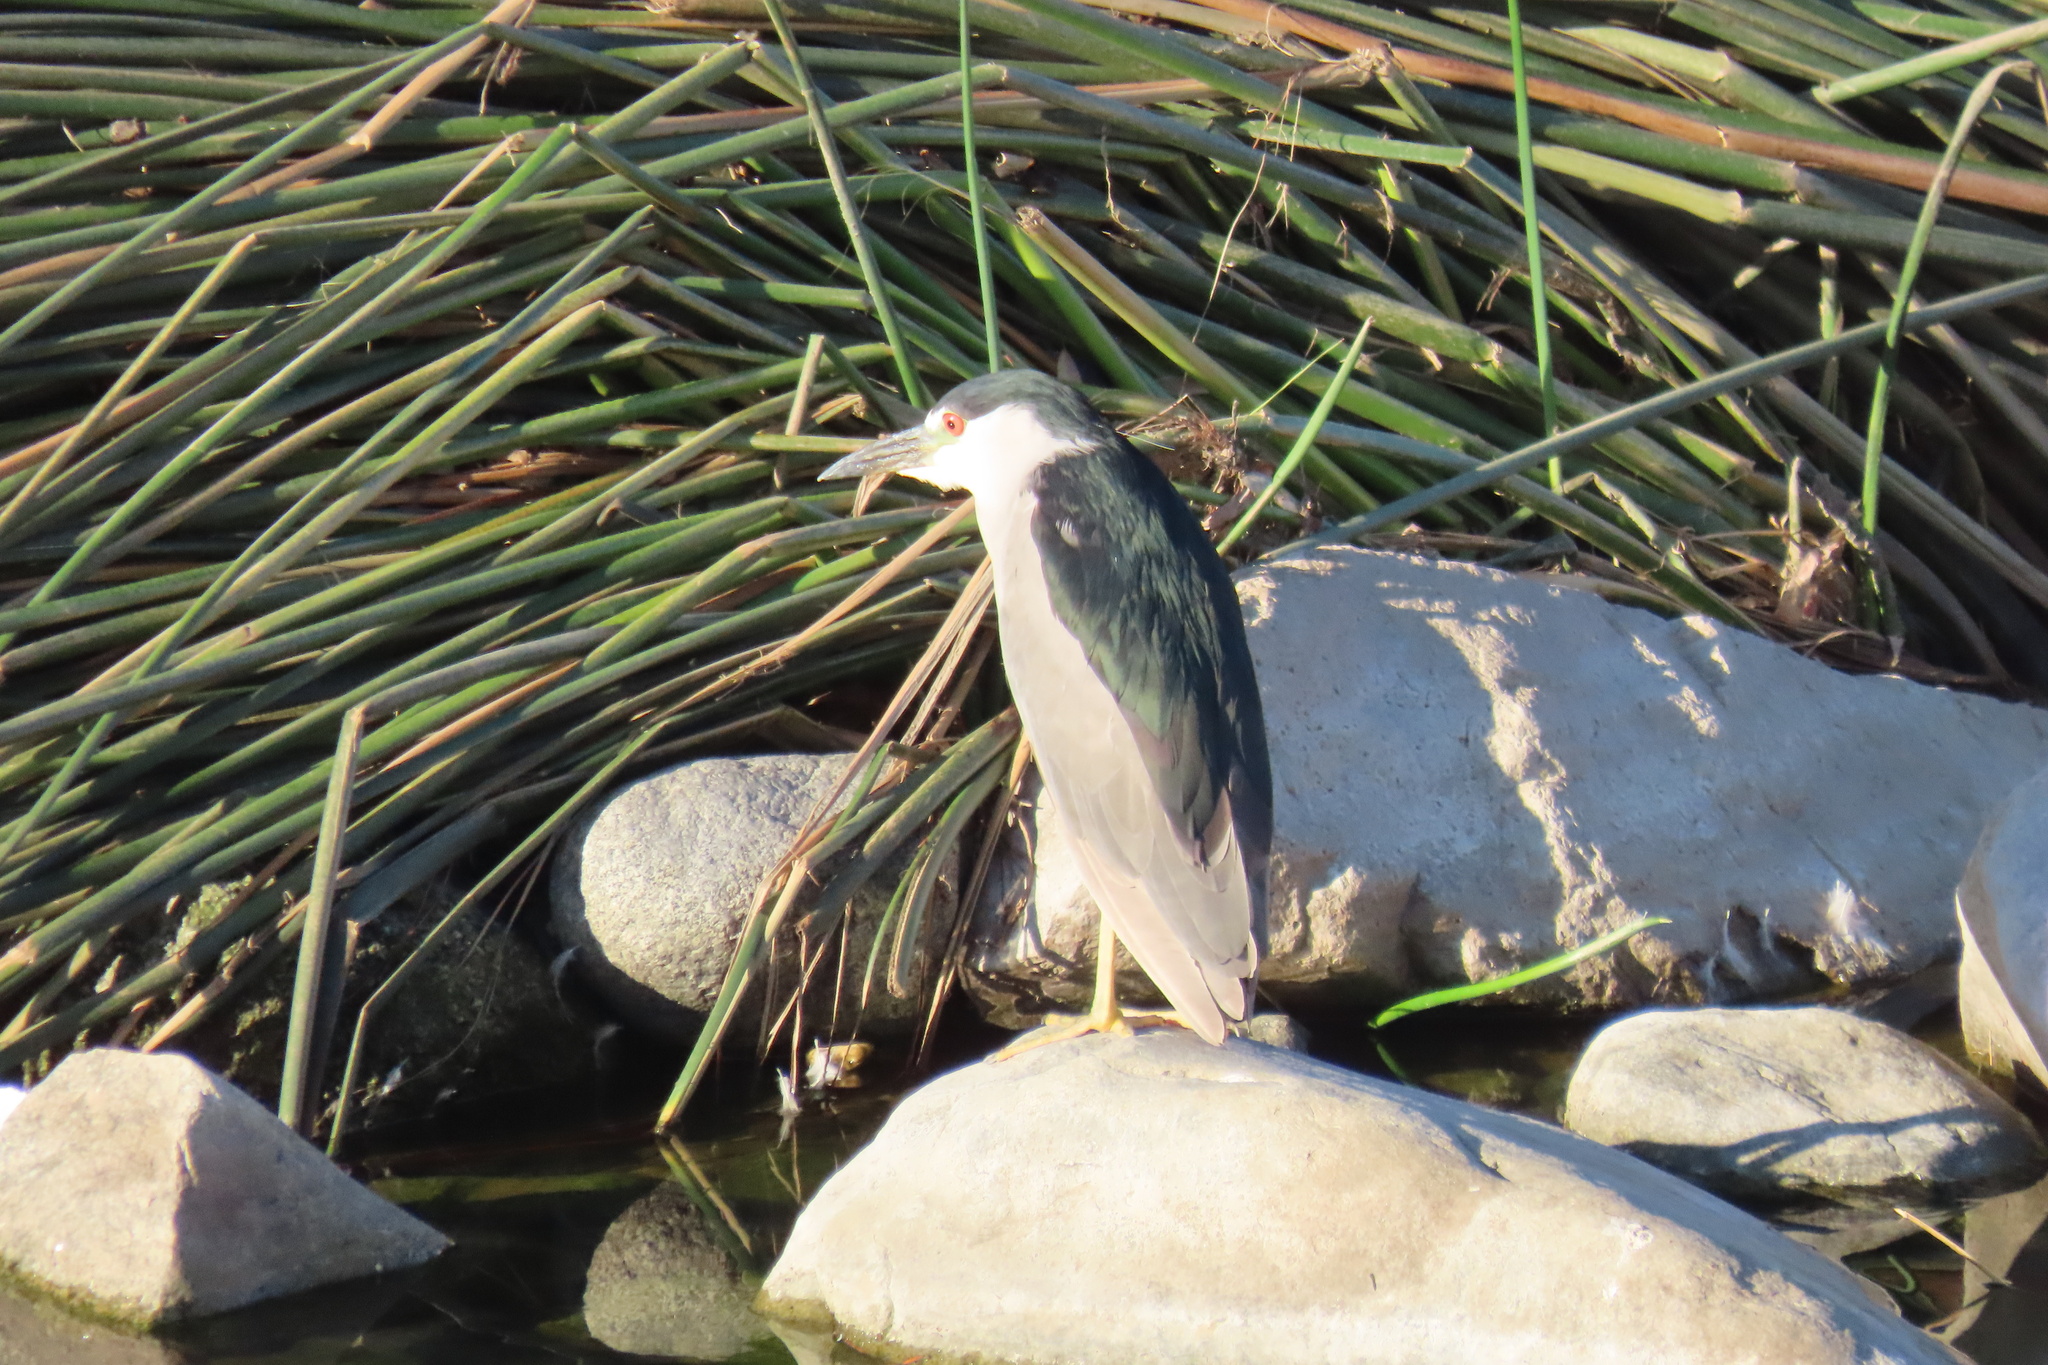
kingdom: Animalia
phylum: Chordata
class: Aves
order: Pelecaniformes
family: Ardeidae
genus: Nycticorax
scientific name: Nycticorax nycticorax
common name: Black-crowned night heron
